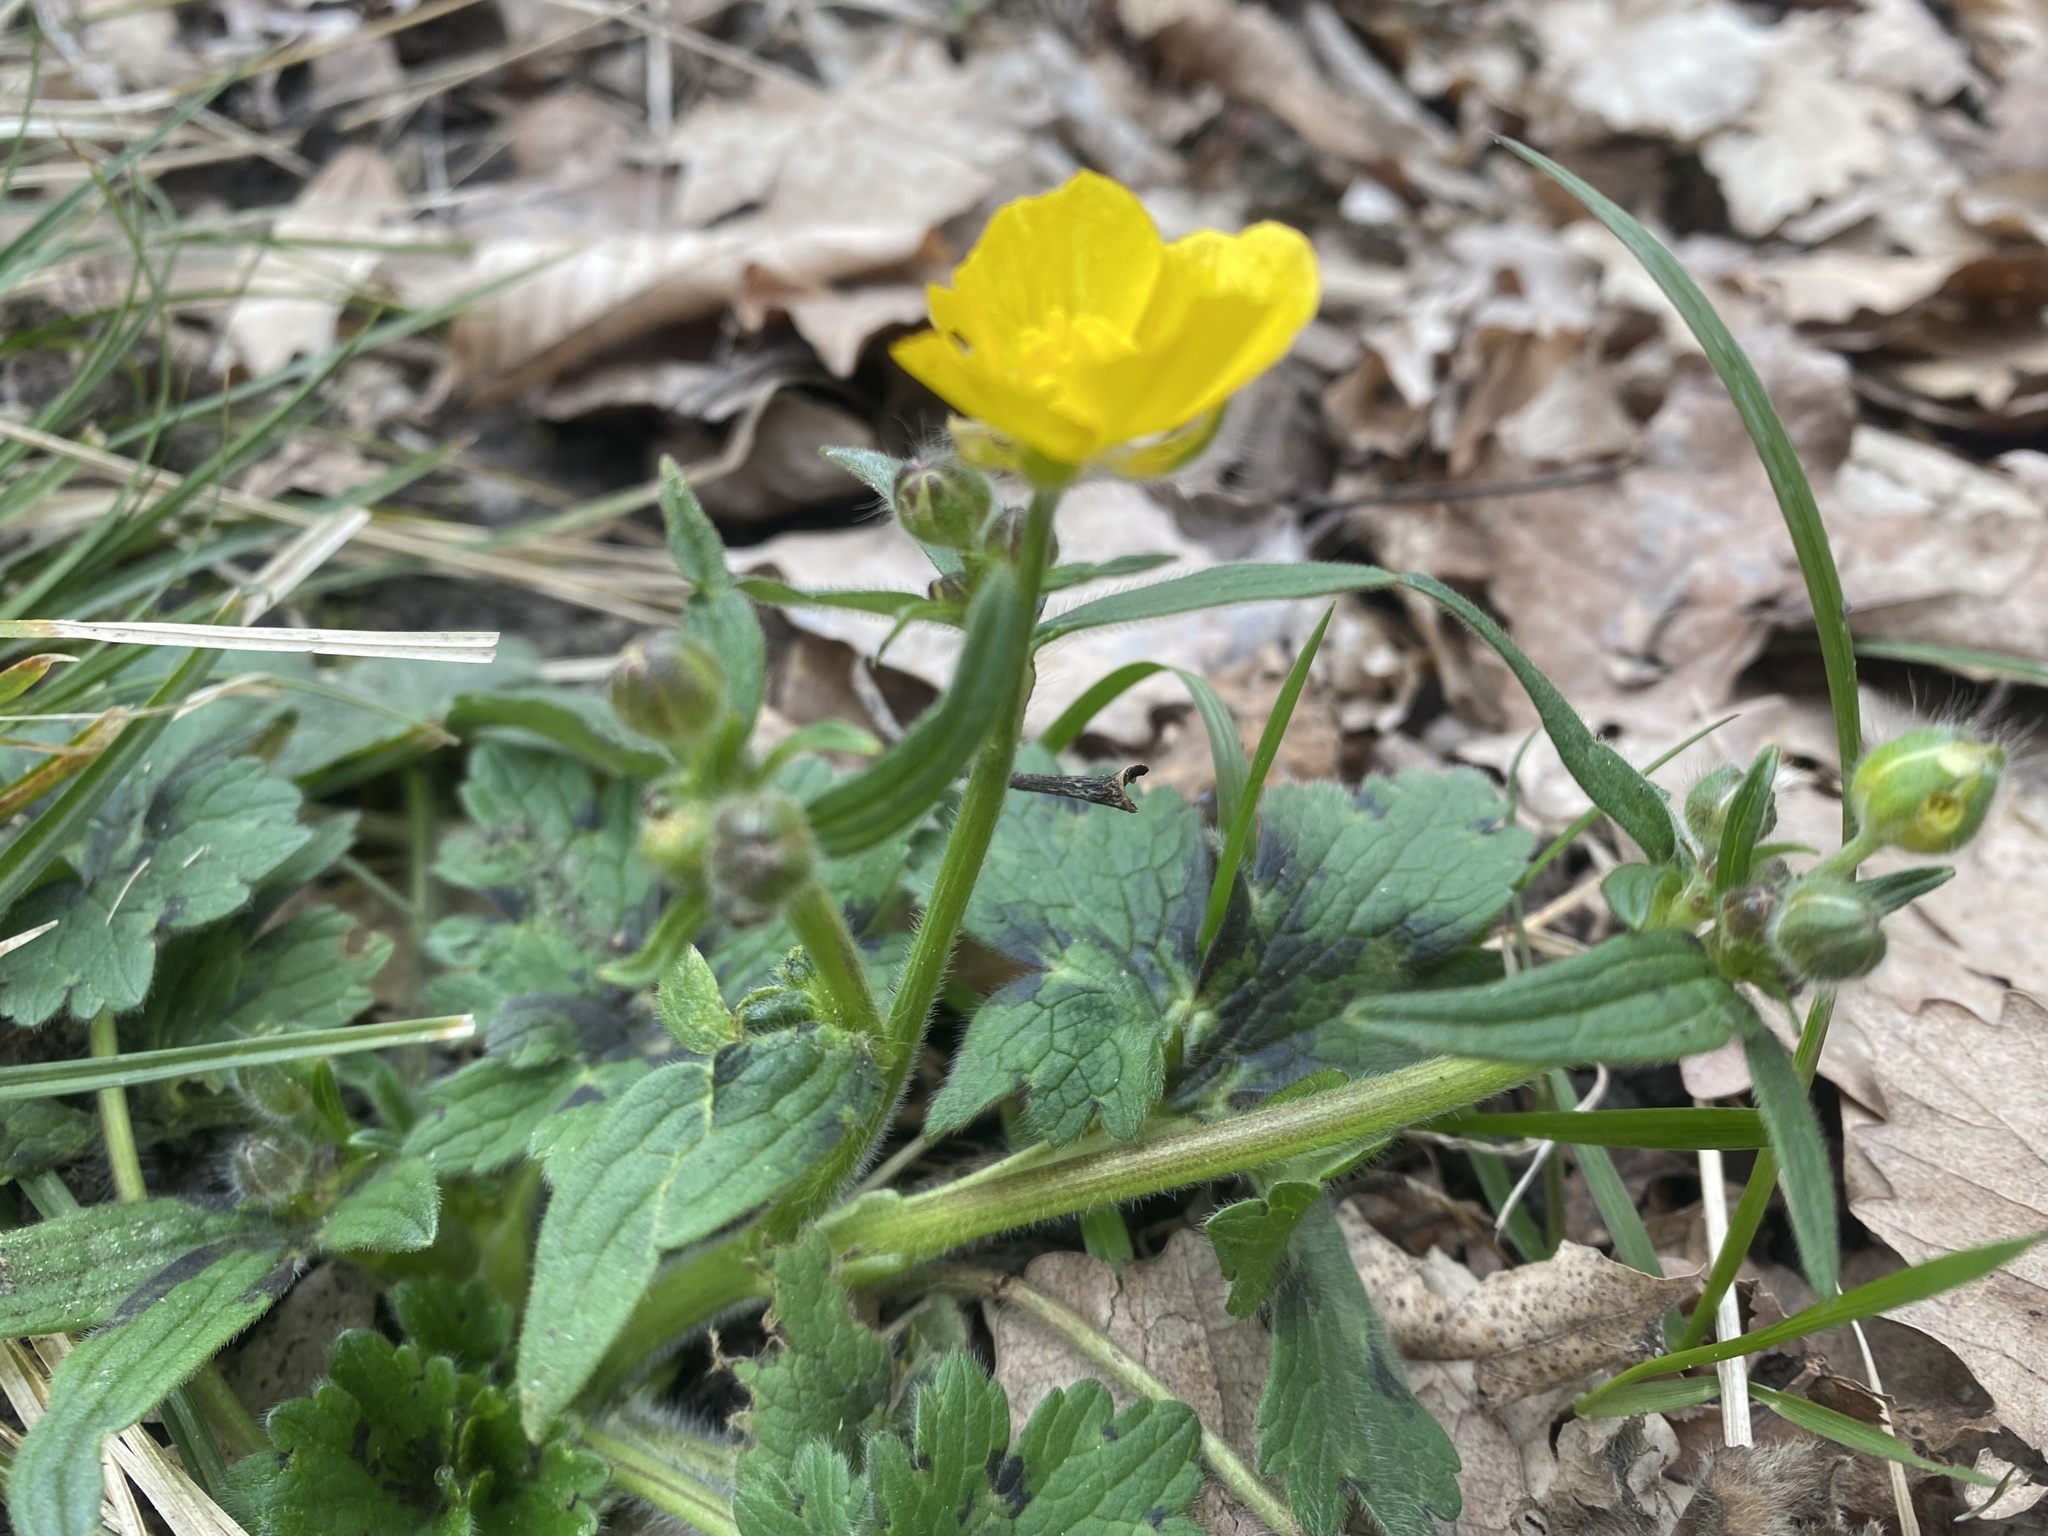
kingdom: Plantae
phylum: Tracheophyta
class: Magnoliopsida
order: Ranunculales
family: Ranunculaceae
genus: Ranunculus
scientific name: Ranunculus constantinopolitanus
